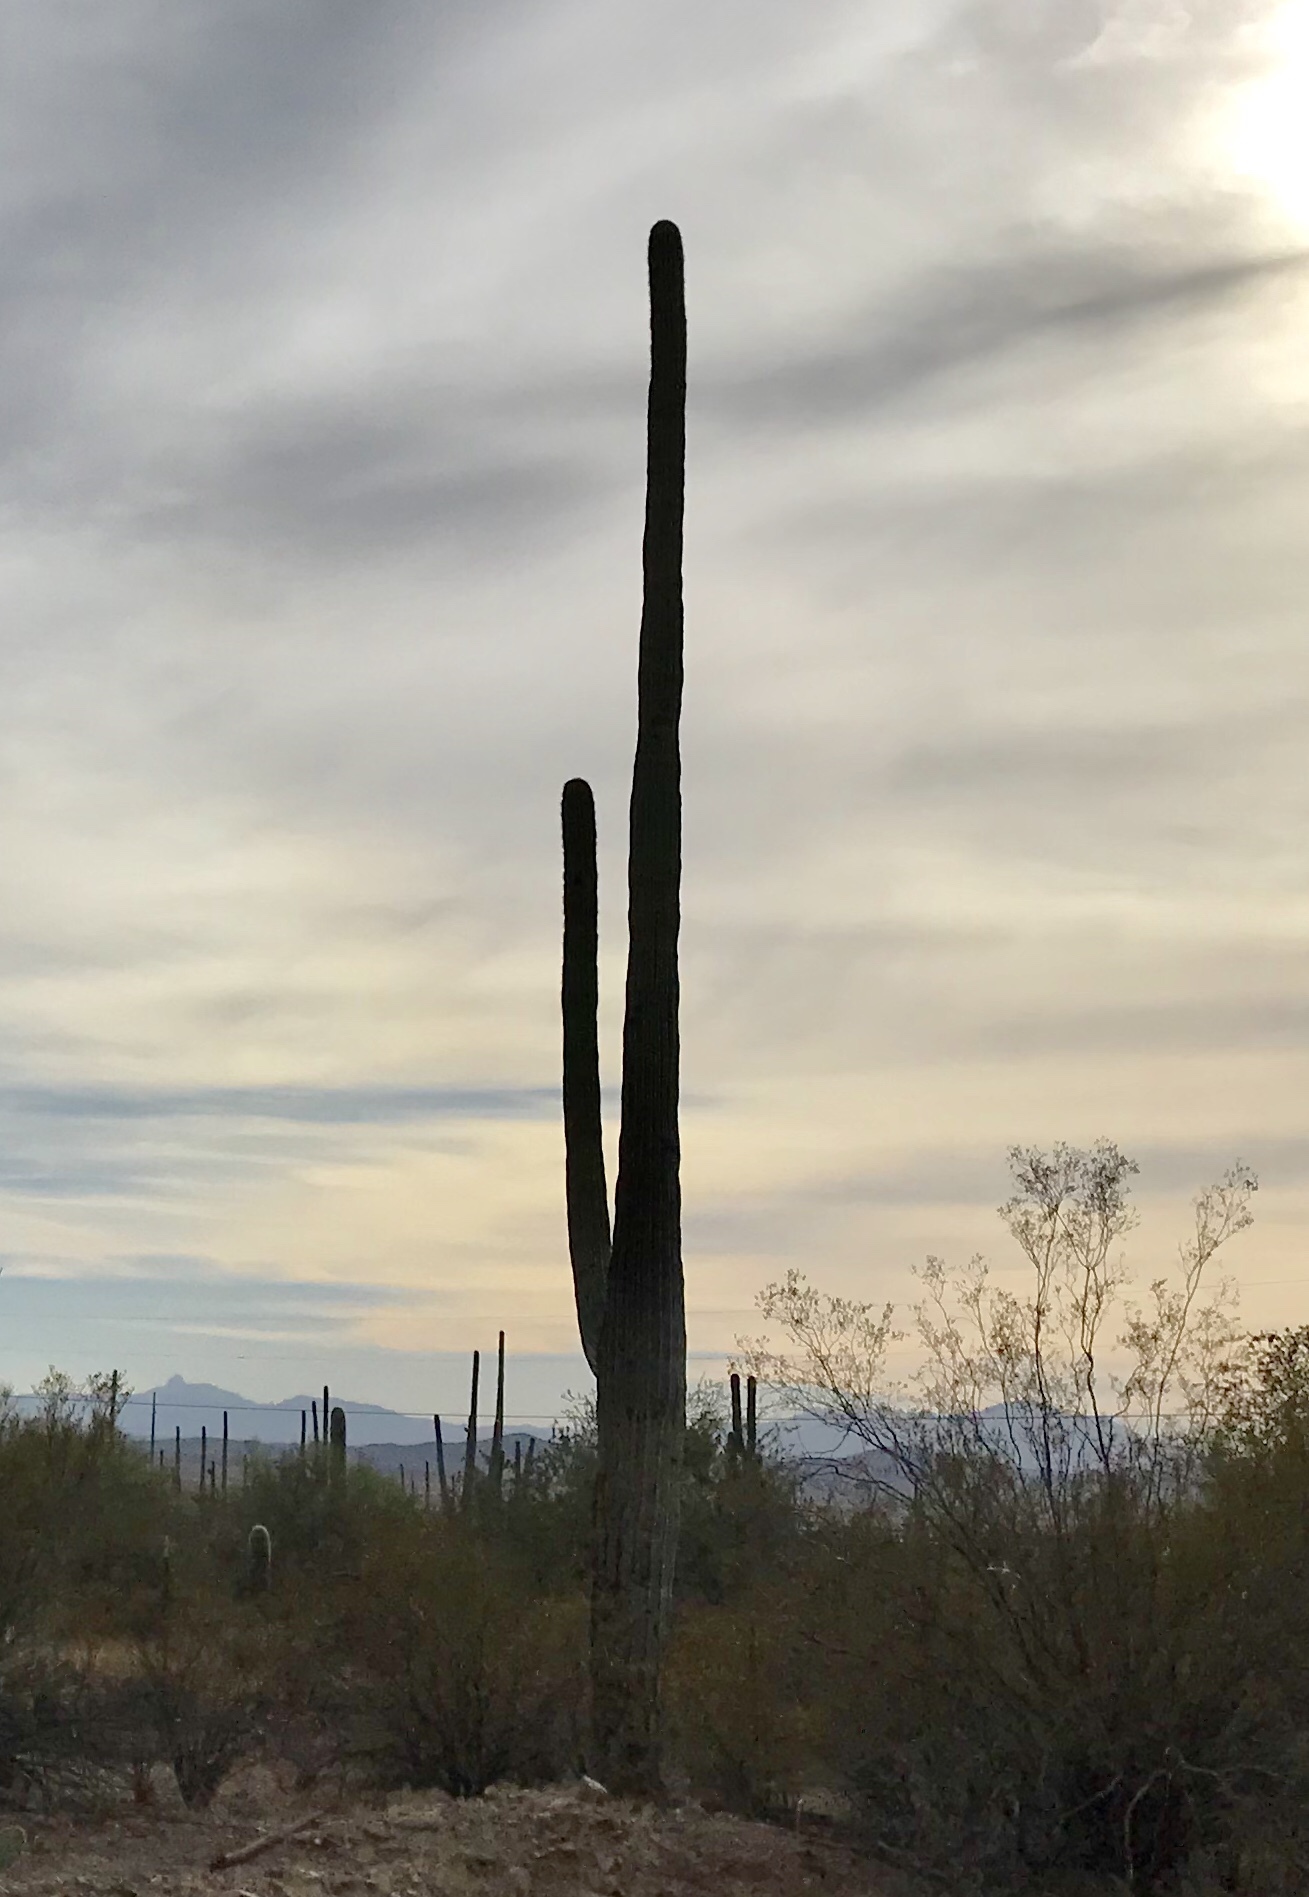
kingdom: Plantae
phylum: Tracheophyta
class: Magnoliopsida
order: Caryophyllales
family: Cactaceae
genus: Carnegiea
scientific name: Carnegiea gigantea
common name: Saguaro
